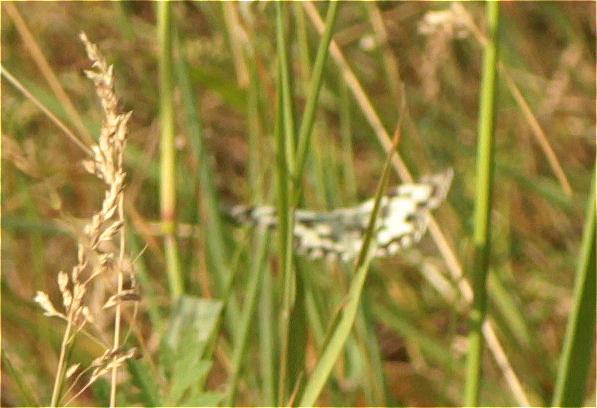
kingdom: Animalia
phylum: Arthropoda
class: Insecta
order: Lepidoptera
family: Nymphalidae
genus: Melanargia
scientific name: Melanargia galathea
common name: Marbled white
